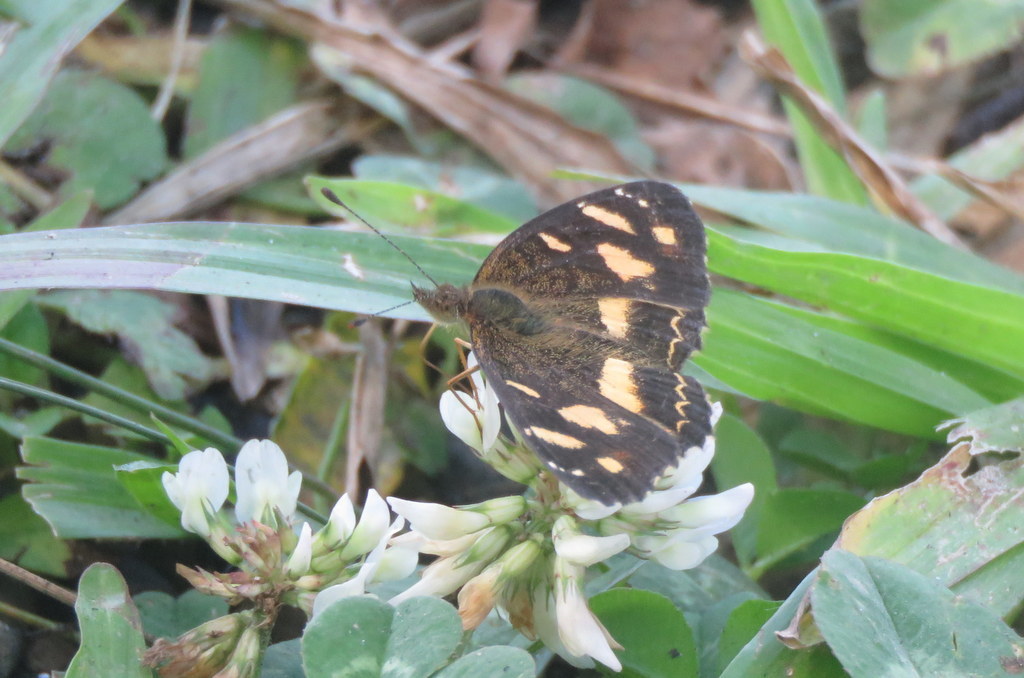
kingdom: Animalia
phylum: Arthropoda
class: Insecta
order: Lepidoptera
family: Nymphalidae
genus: Telenassa
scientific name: Telenassa berenice
